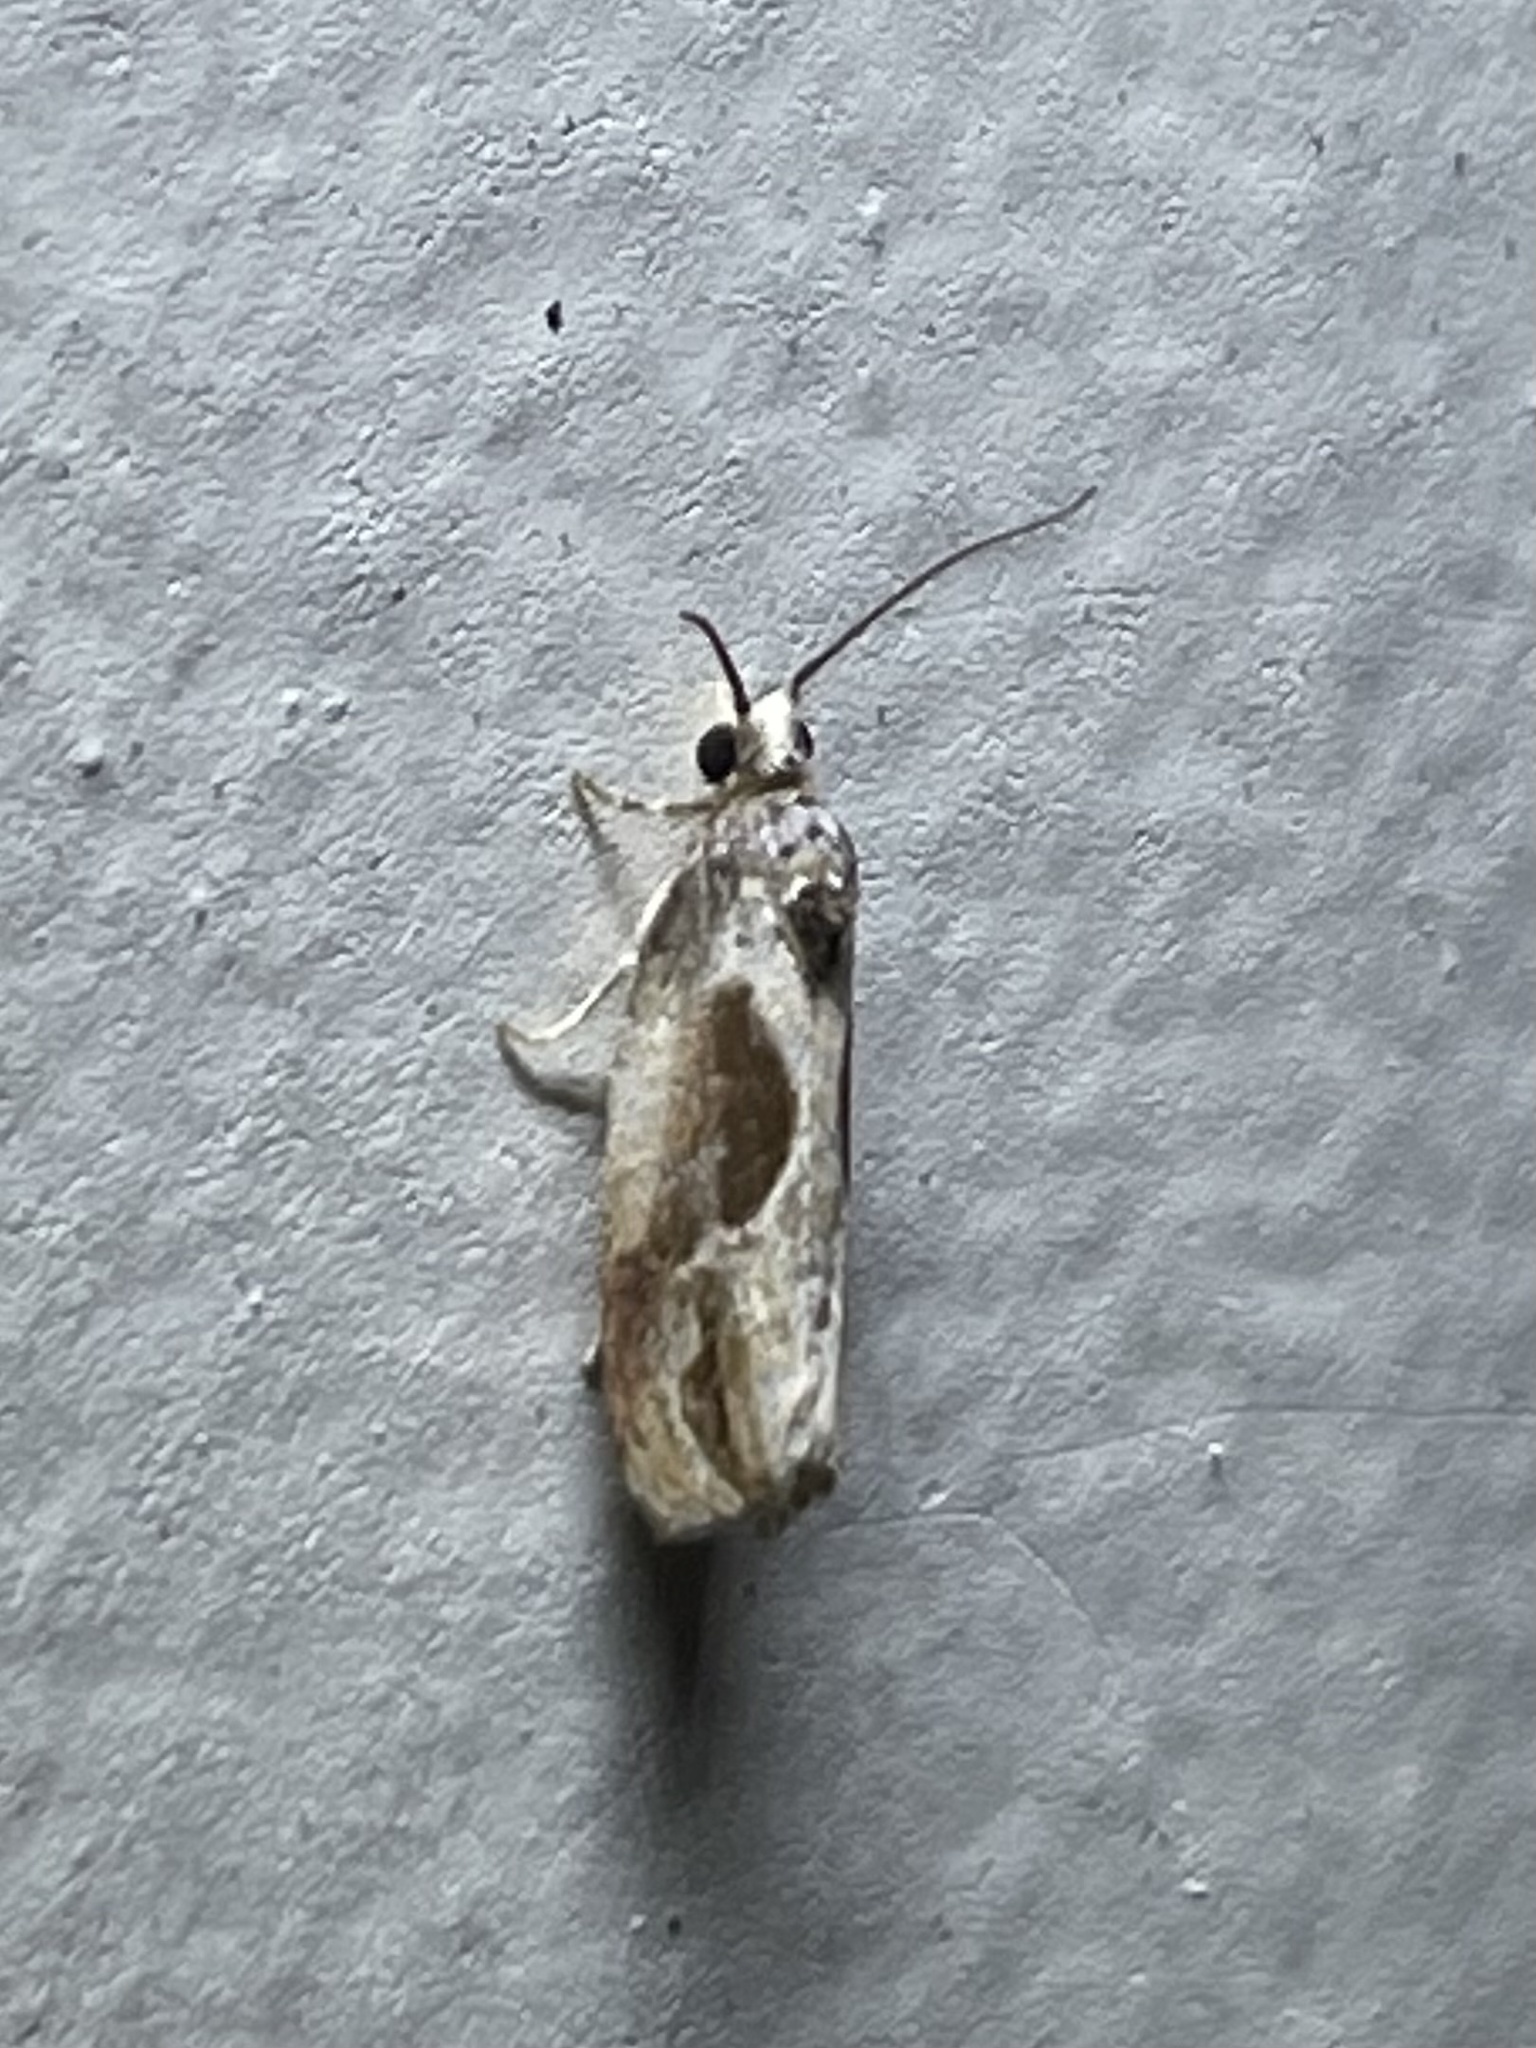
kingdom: Animalia
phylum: Arthropoda
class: Insecta
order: Lepidoptera
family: Tortricidae
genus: Eumarozia
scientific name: Eumarozia malachitana
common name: Sculptured moth
